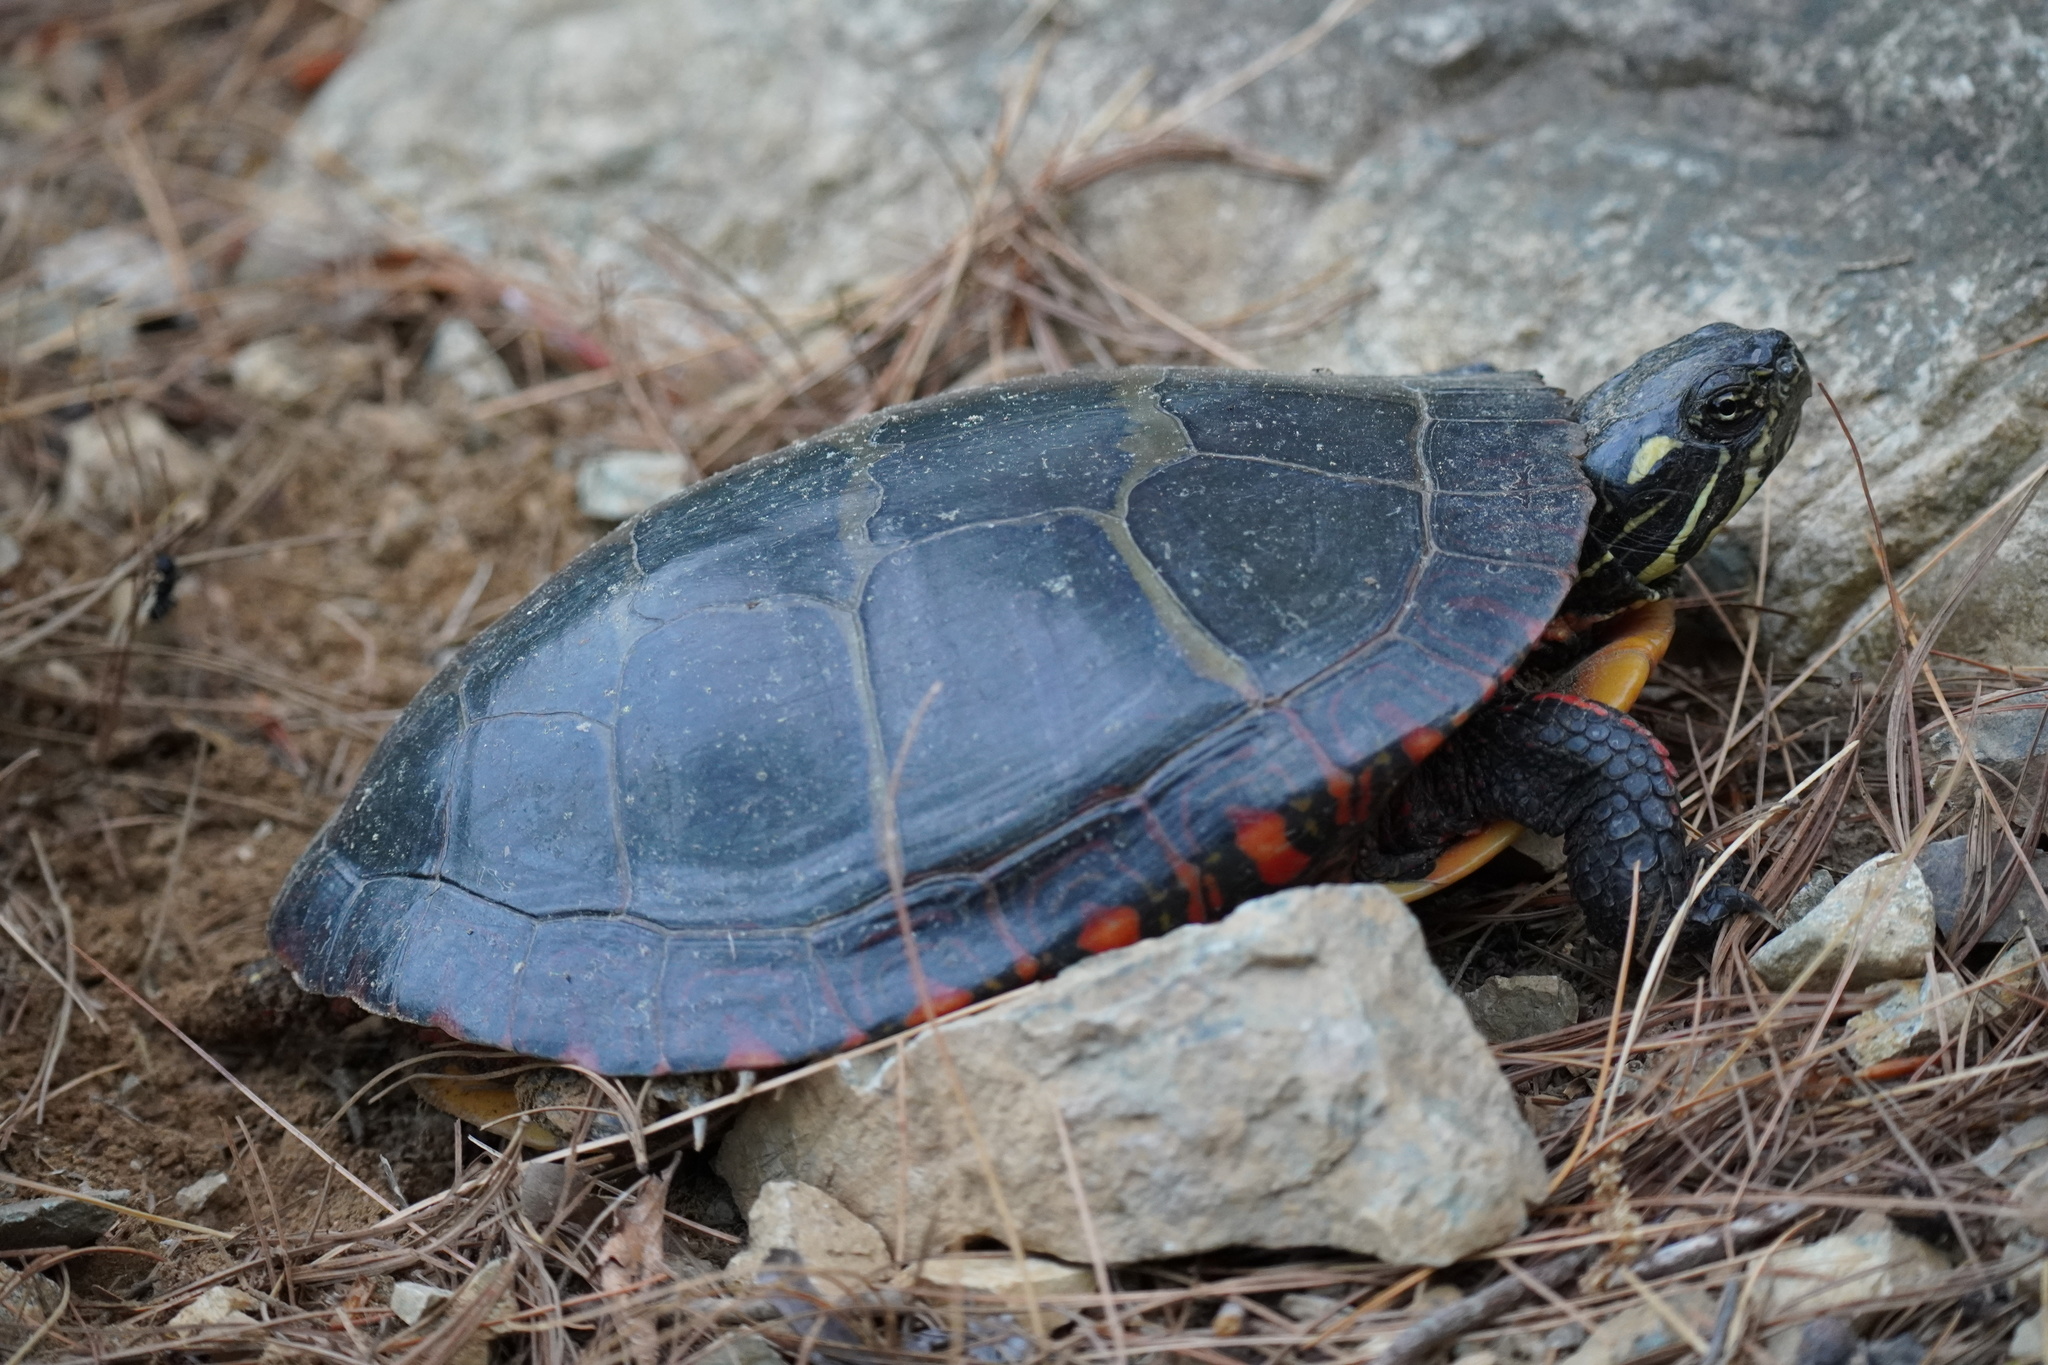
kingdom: Animalia
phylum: Chordata
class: Testudines
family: Emydidae
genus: Chrysemys
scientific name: Chrysemys picta
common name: Painted turtle
